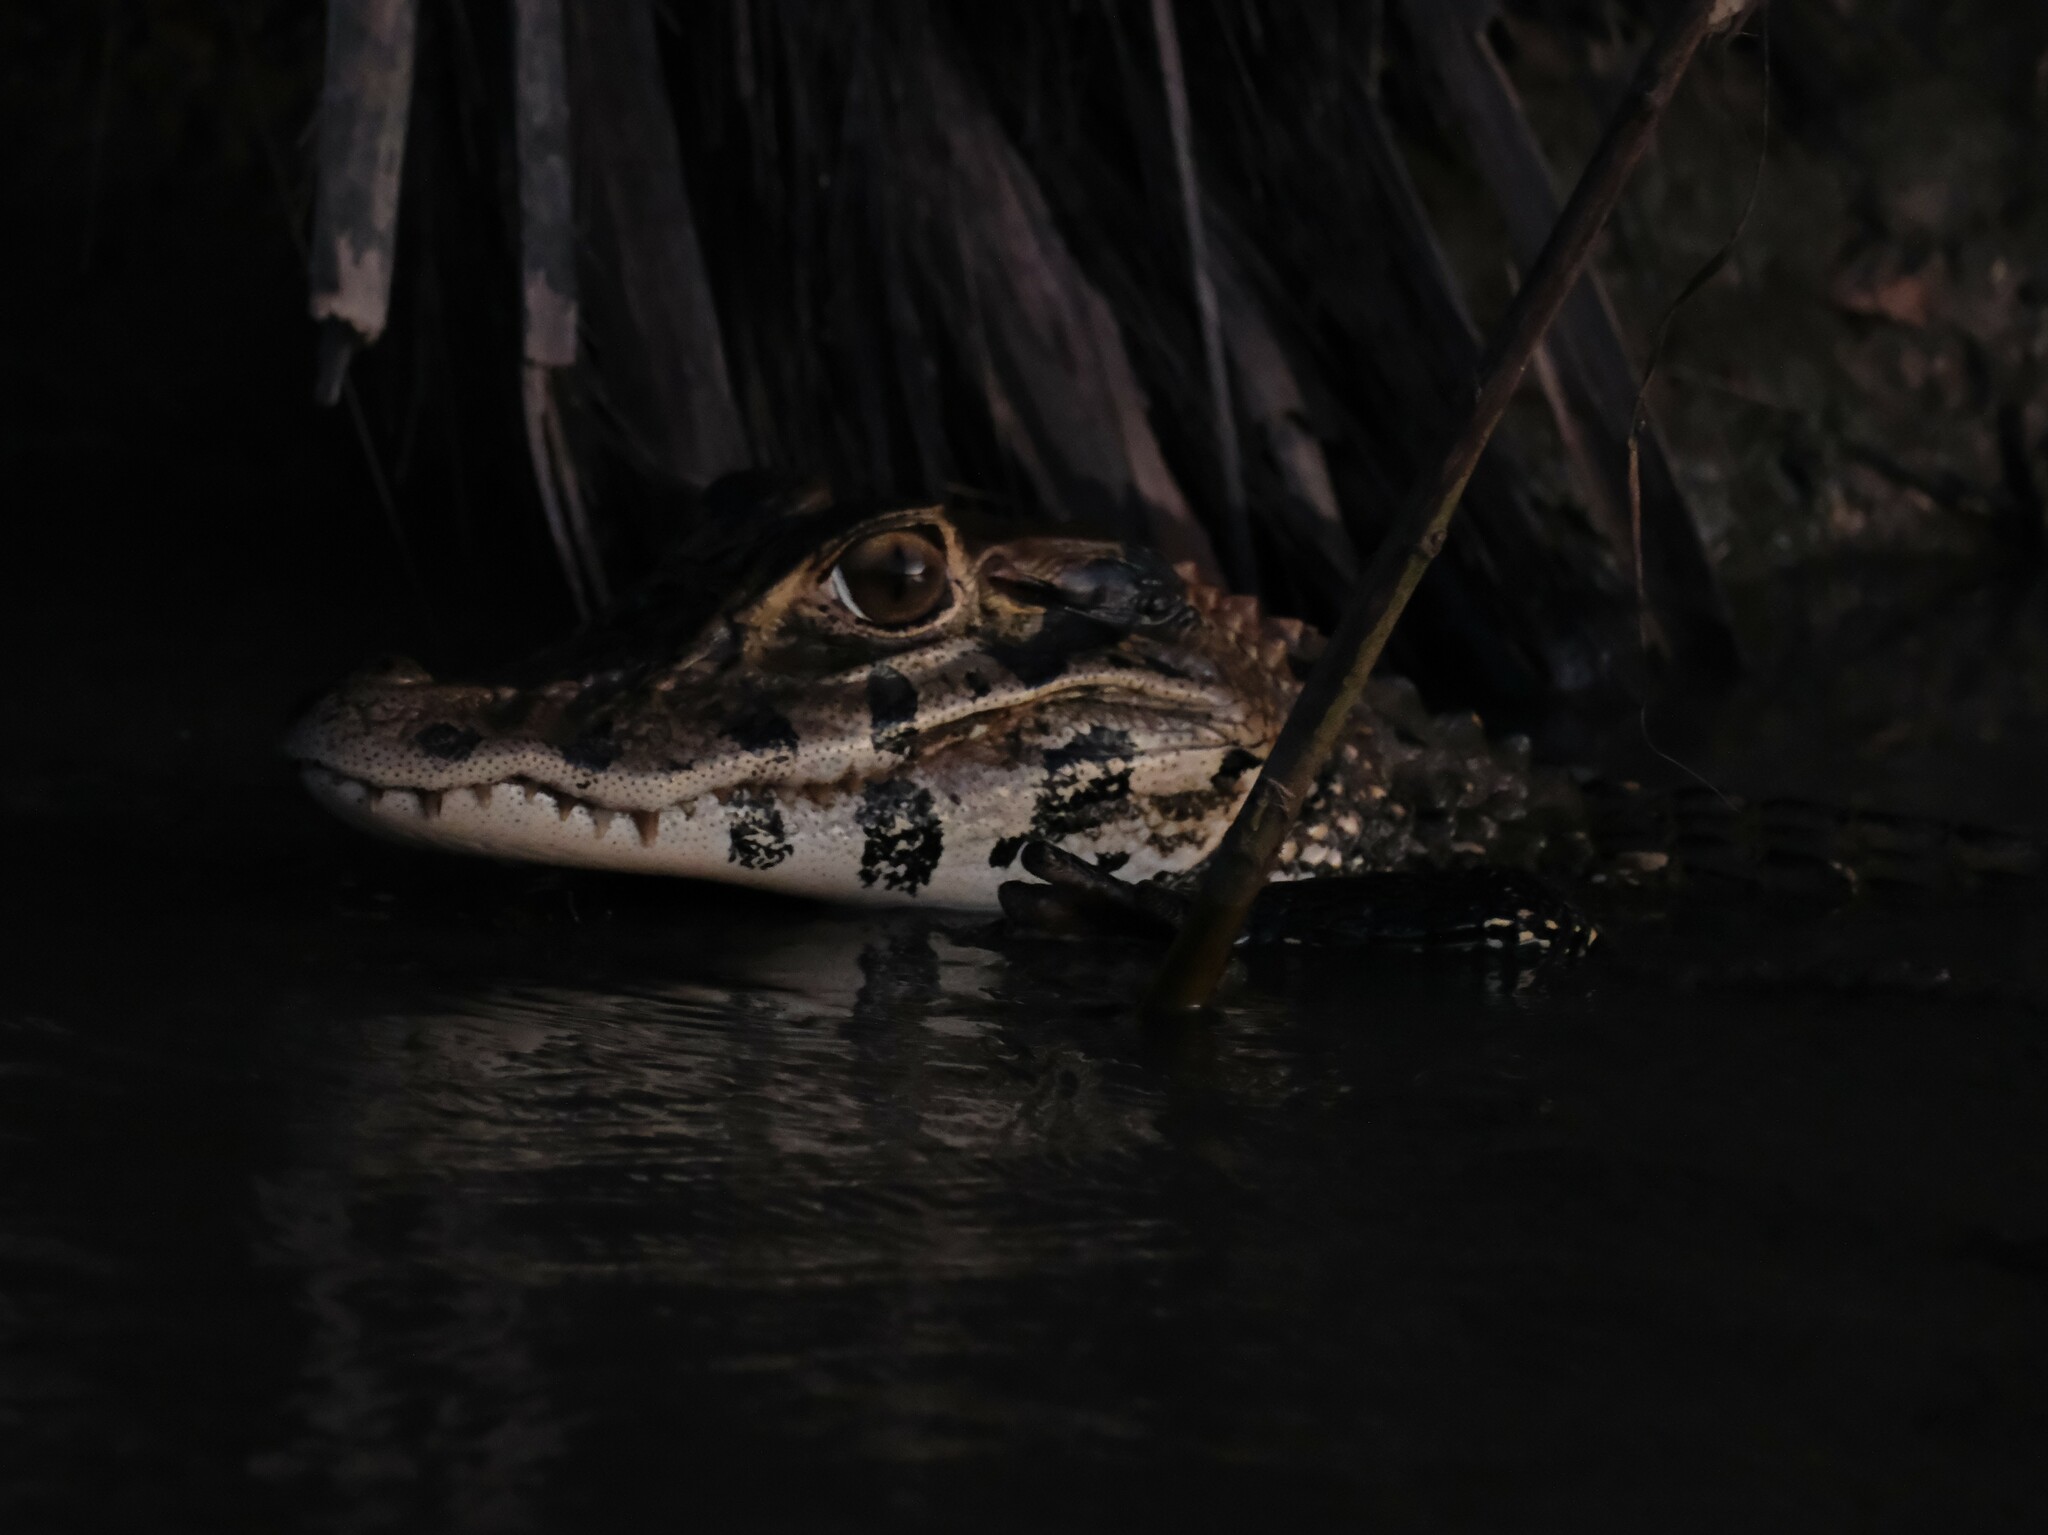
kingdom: Animalia
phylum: Chordata
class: Crocodylia
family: Alligatoridae
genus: Melanosuchus
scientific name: Melanosuchus niger
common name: Black caiman
